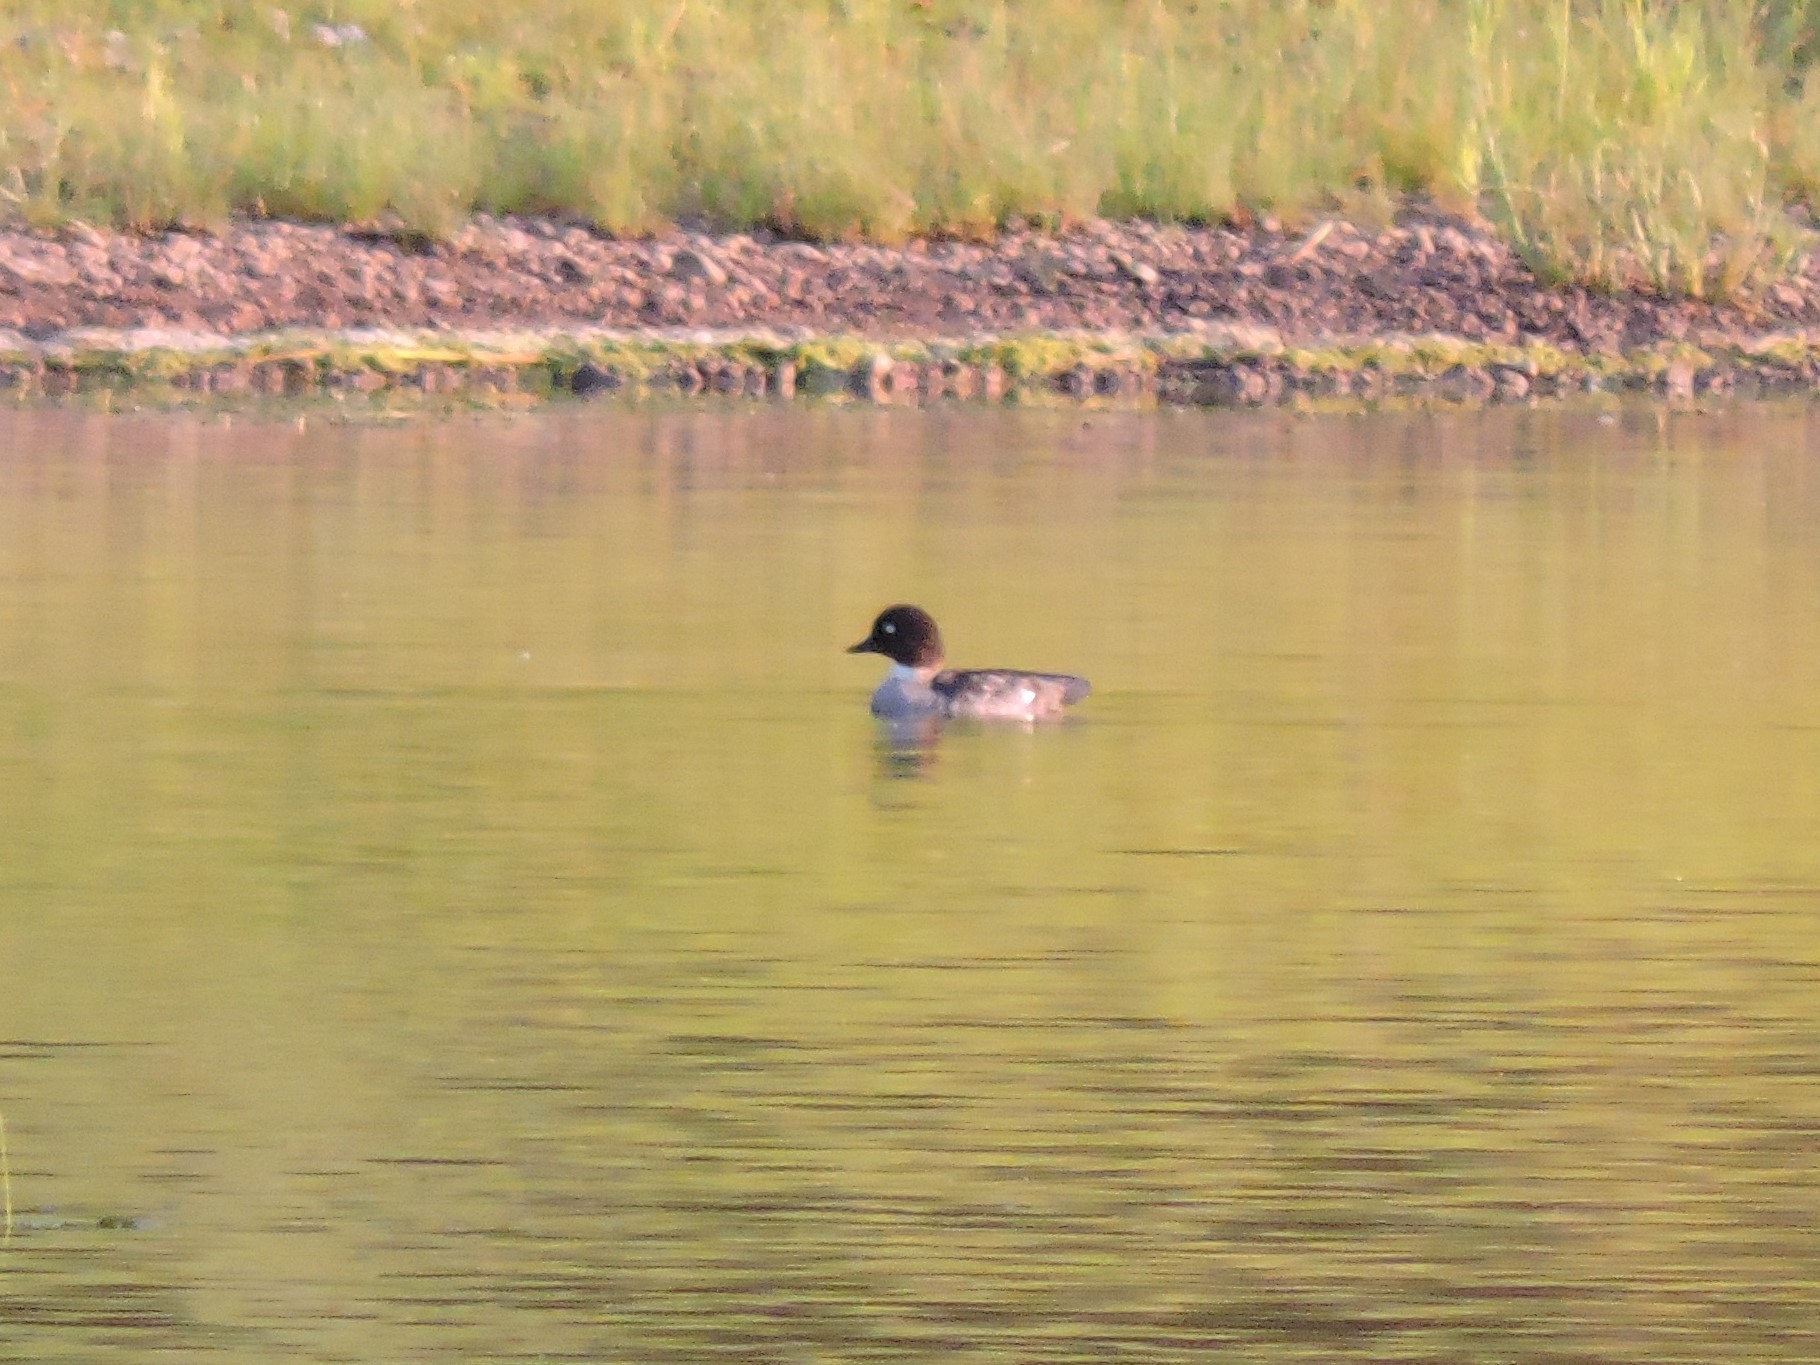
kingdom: Animalia
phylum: Chordata
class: Aves
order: Anseriformes
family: Anatidae
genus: Bucephala
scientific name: Bucephala clangula
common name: Common goldeneye
